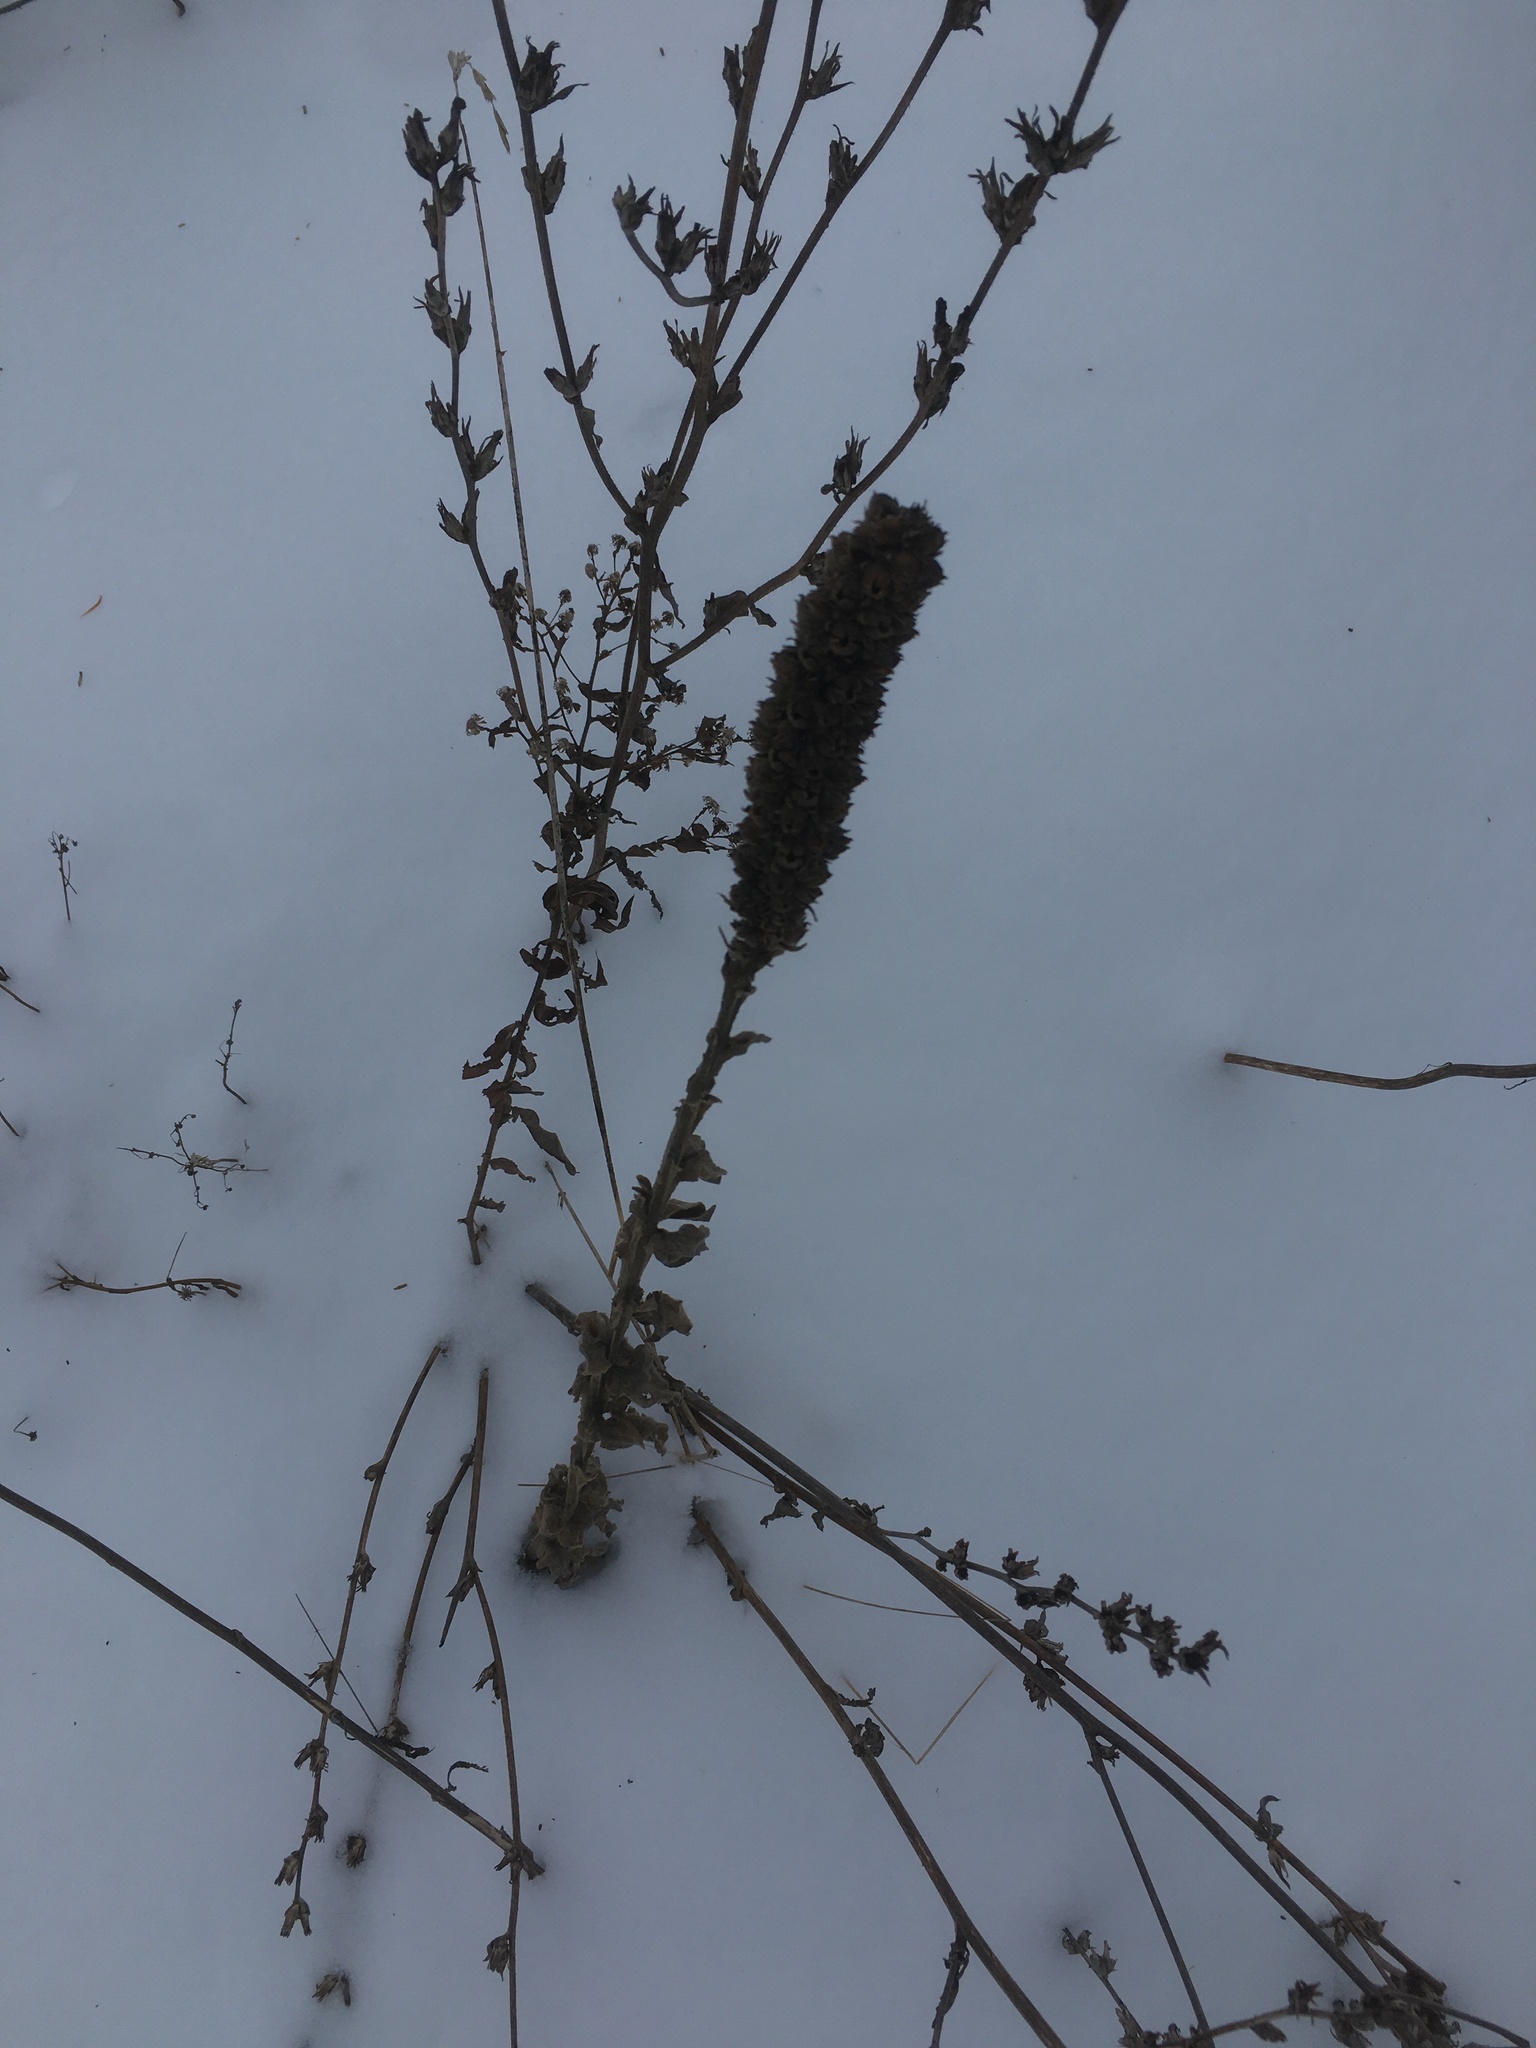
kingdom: Plantae
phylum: Tracheophyta
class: Magnoliopsida
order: Lamiales
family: Scrophulariaceae
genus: Verbascum
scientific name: Verbascum thapsus
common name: Common mullein
